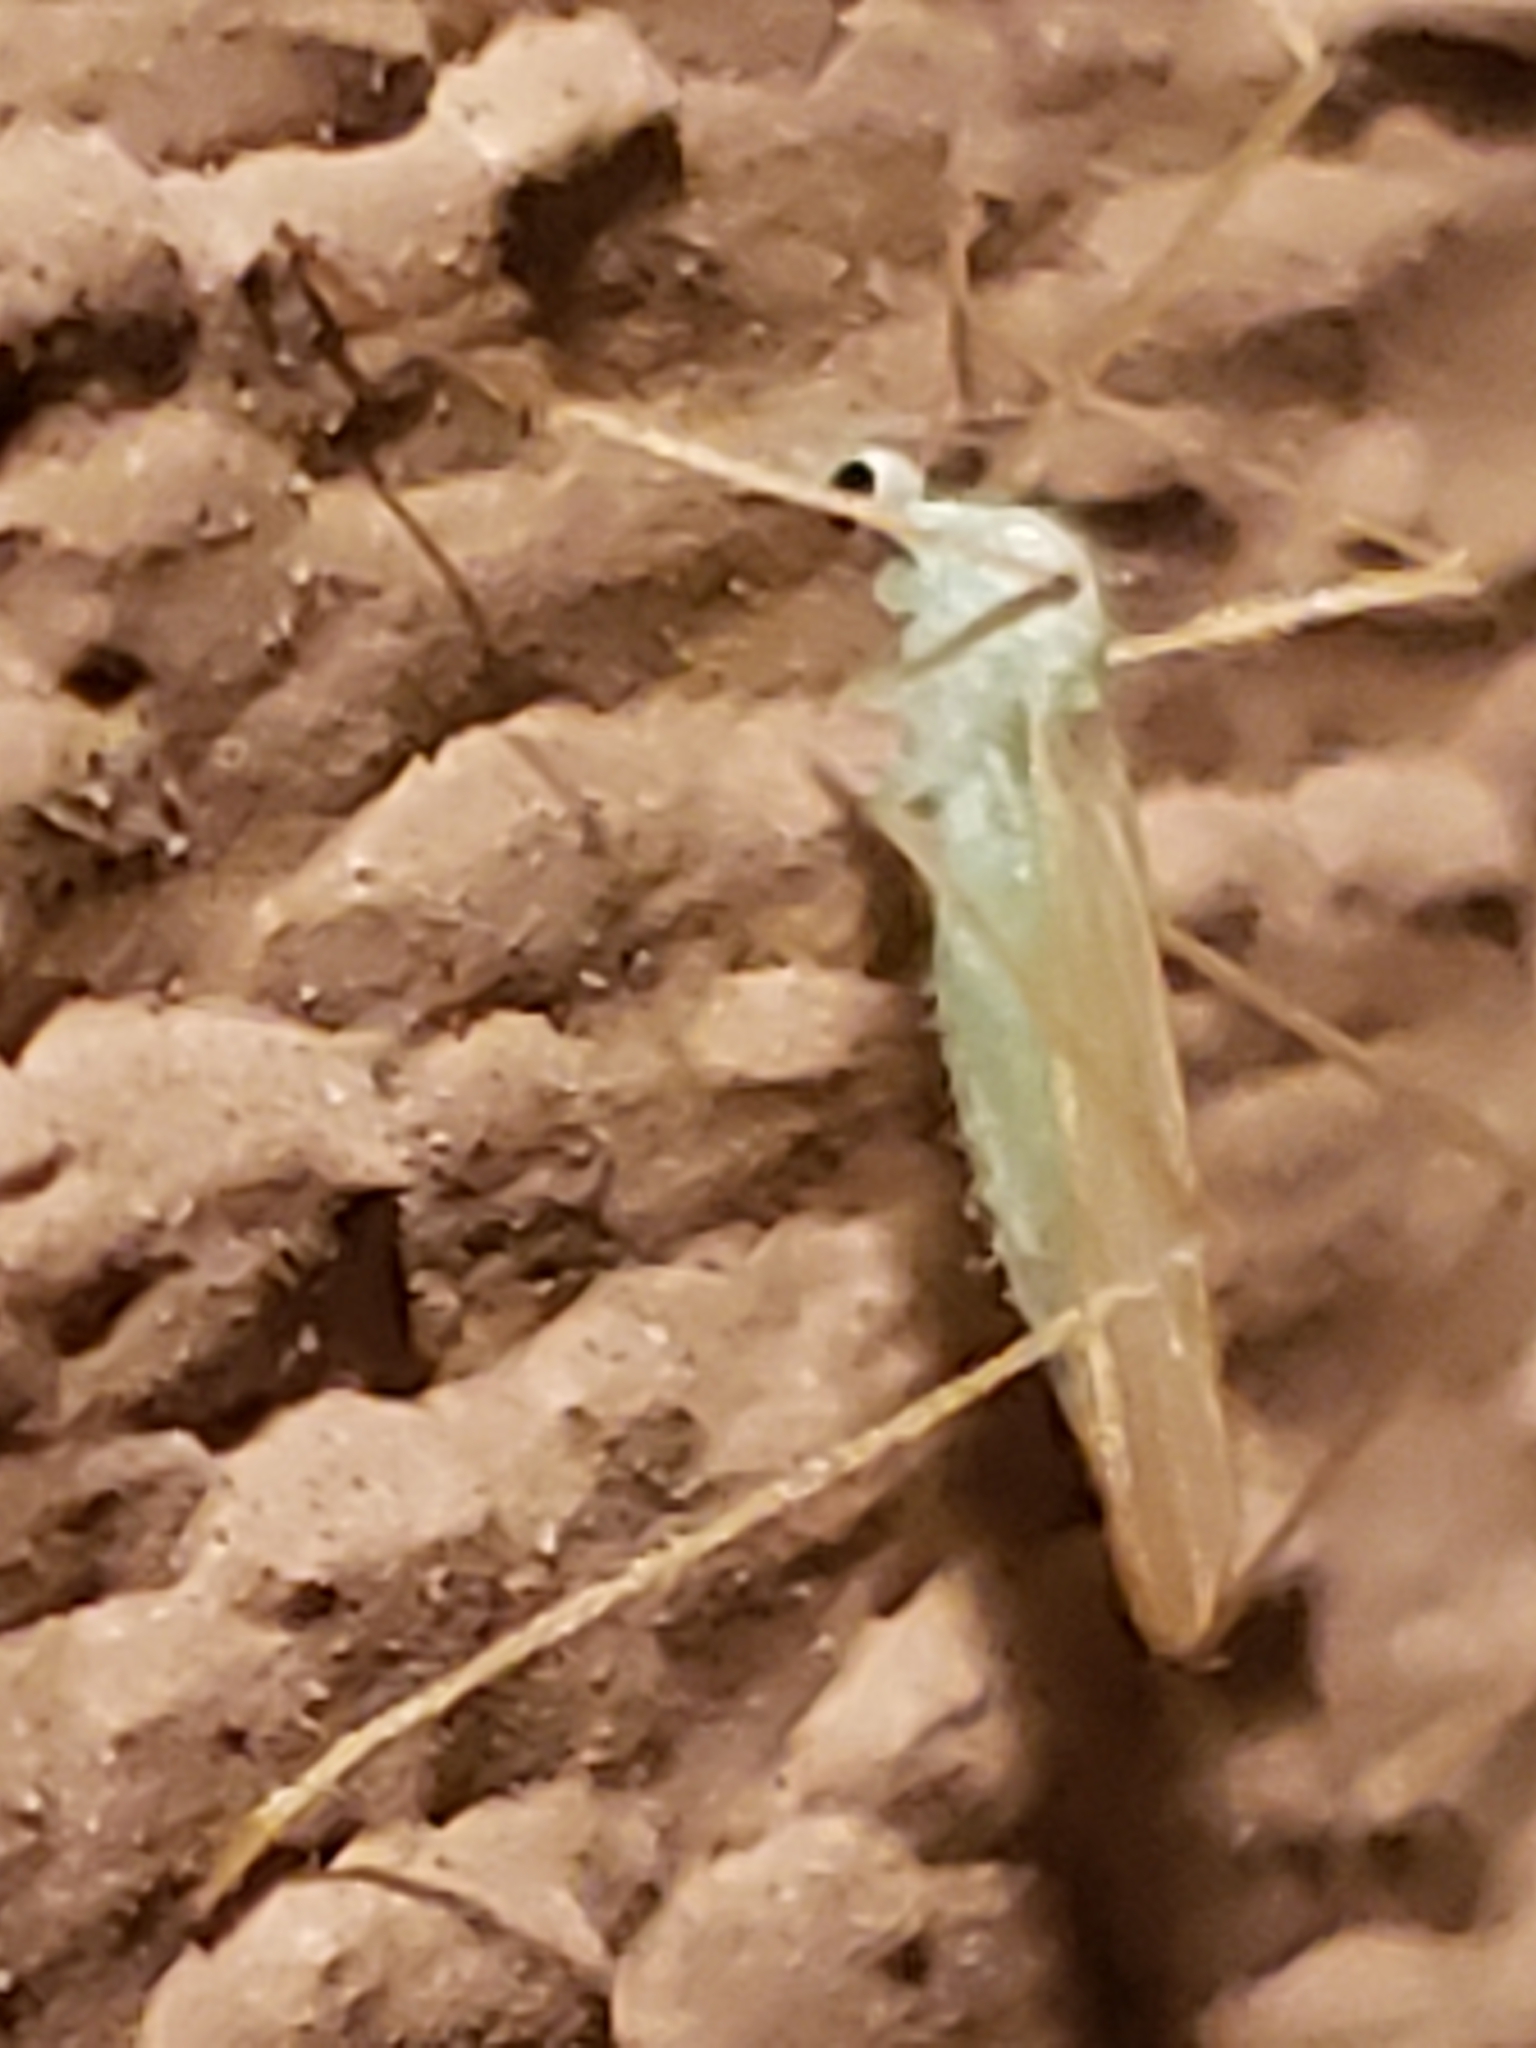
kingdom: Animalia
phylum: Arthropoda
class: Insecta
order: Diptera
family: Limoniidae
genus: Erioptera
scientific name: Erioptera
